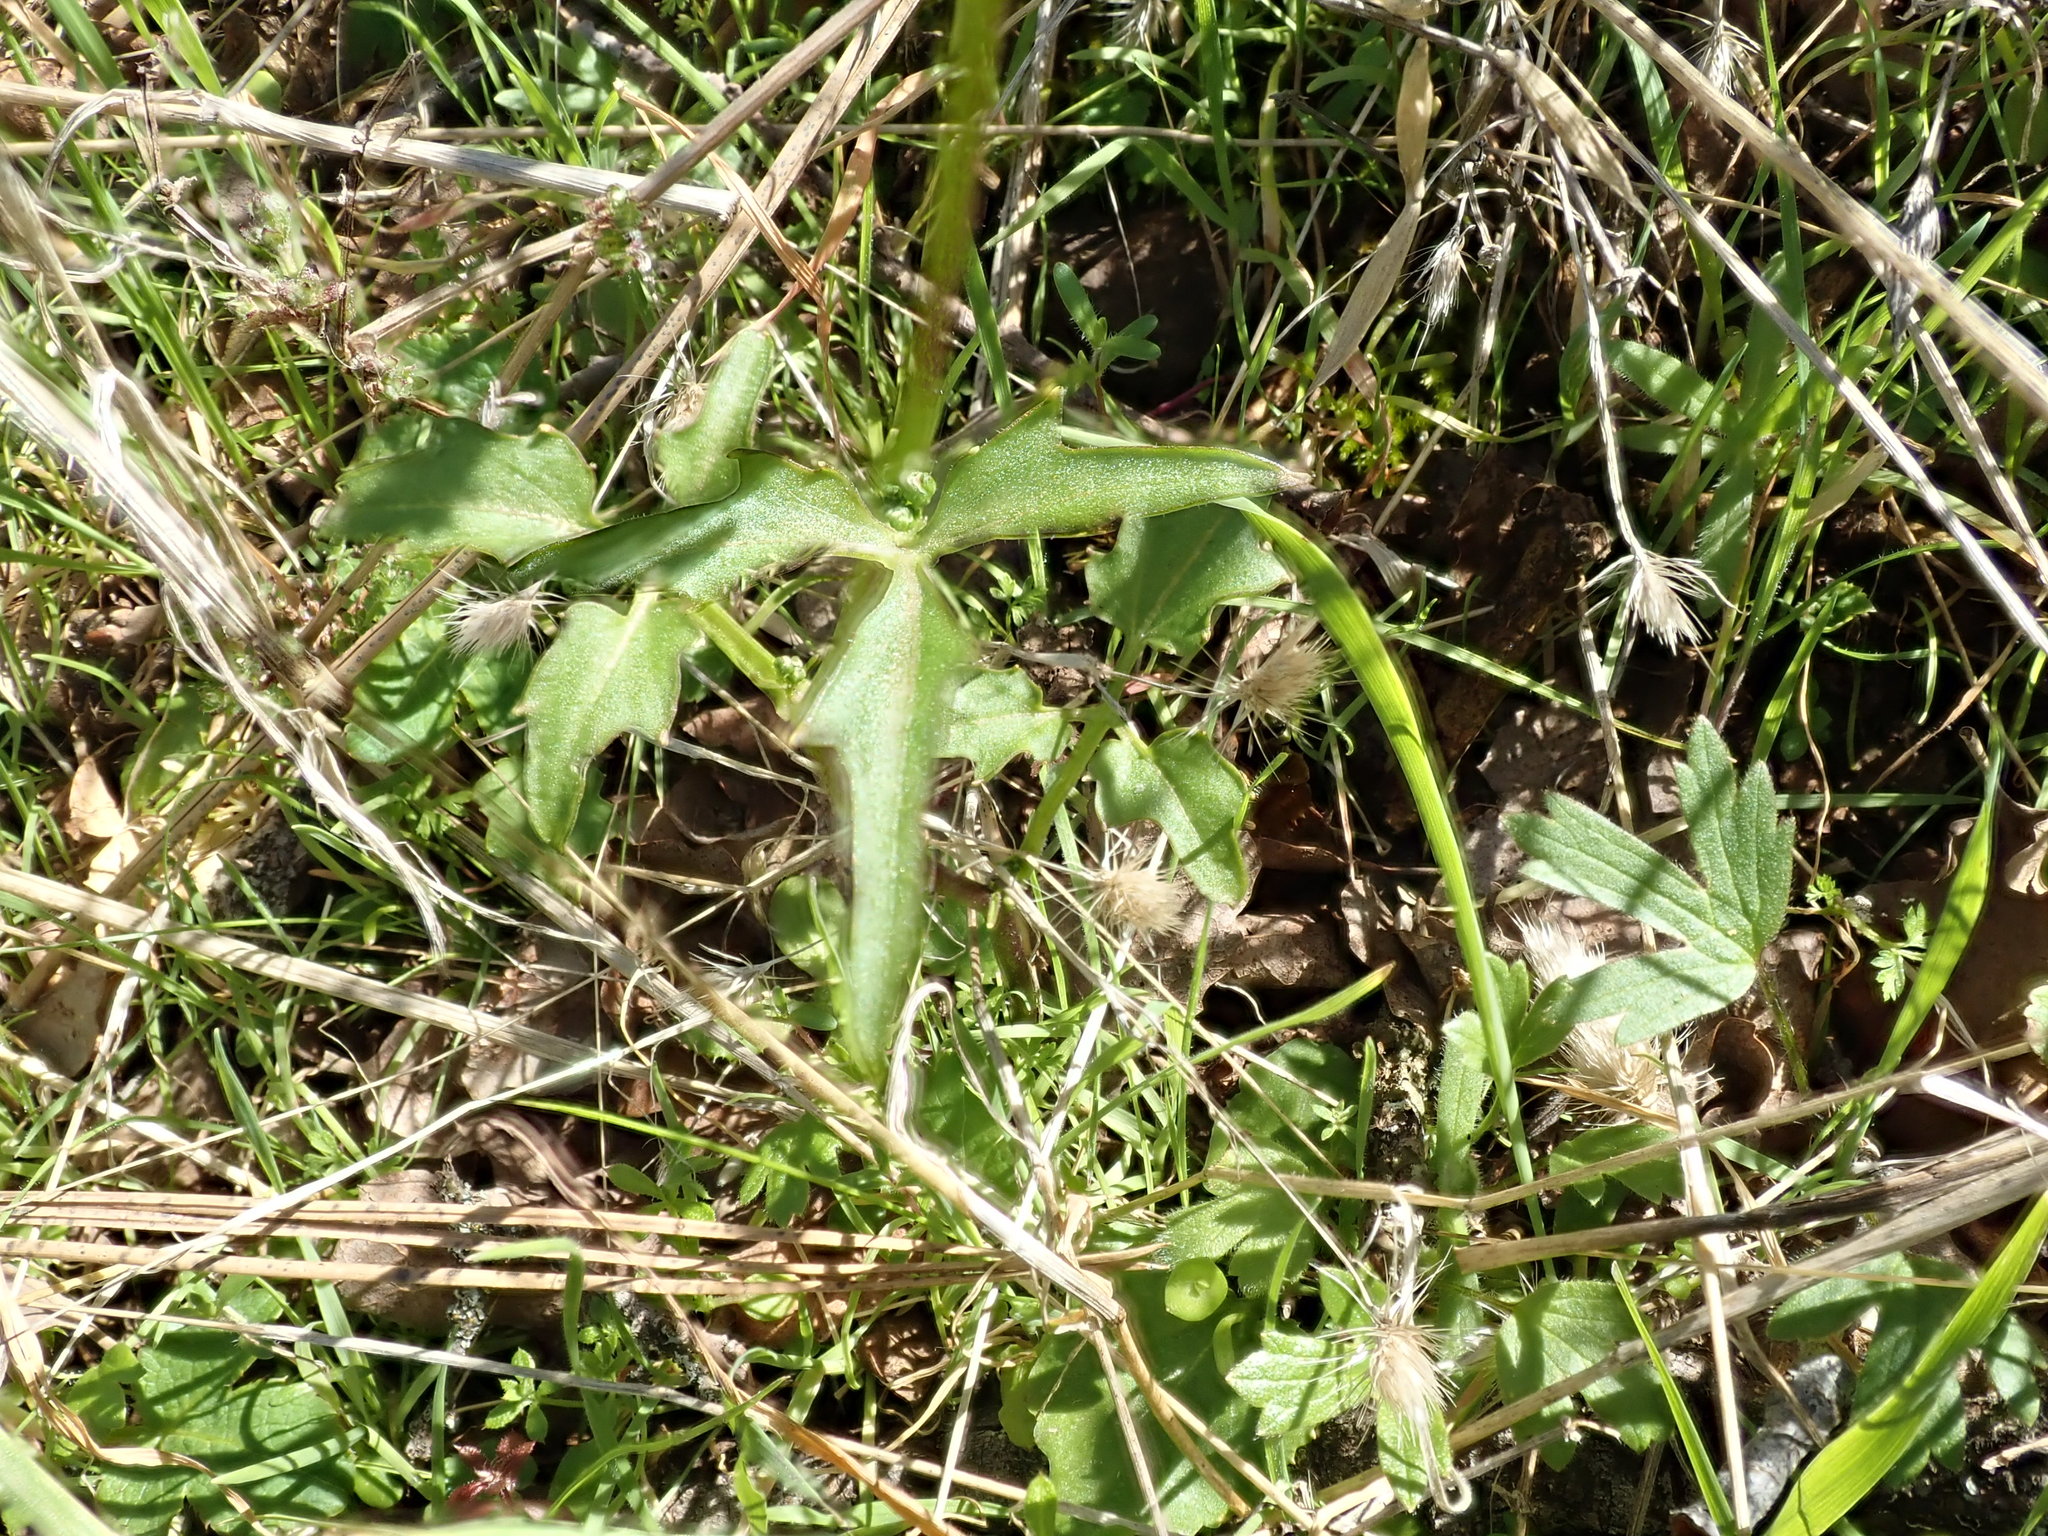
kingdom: Plantae
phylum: Tracheophyta
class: Magnoliopsida
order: Brassicales
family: Brassicaceae
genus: Cardamine
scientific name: Cardamine californica
